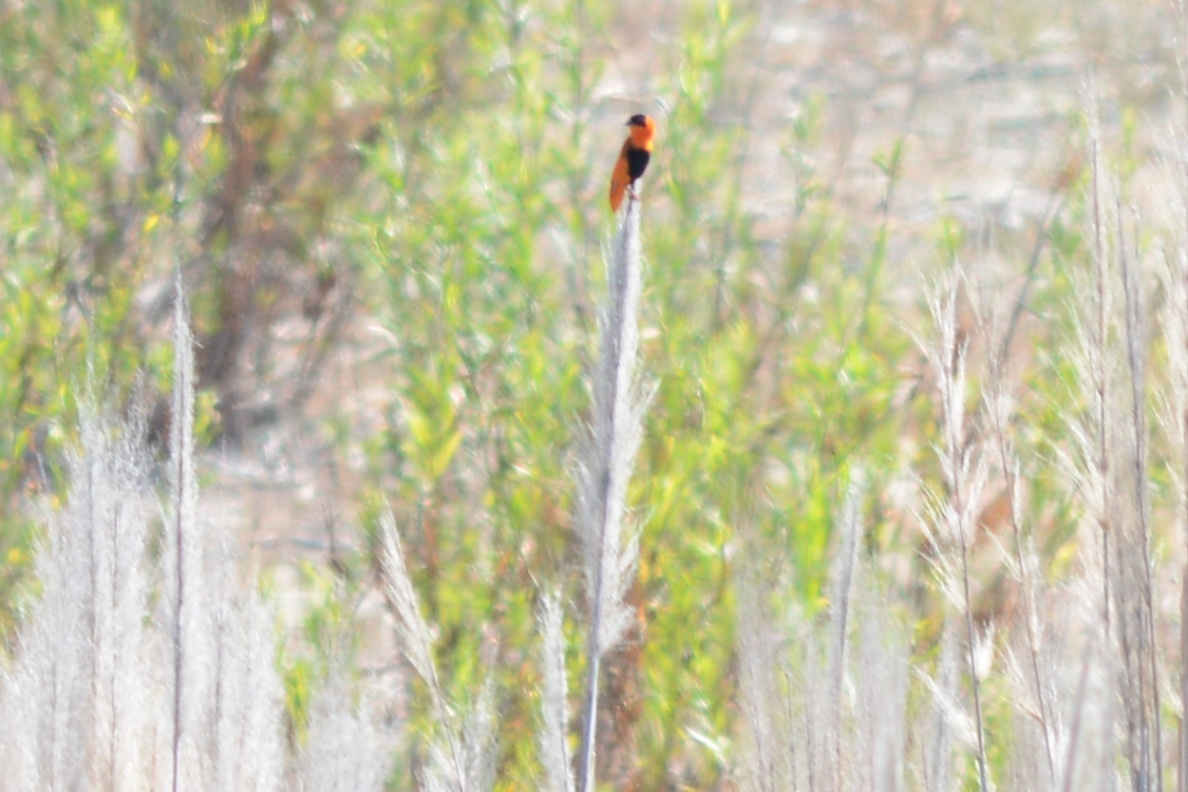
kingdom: Animalia
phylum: Chordata
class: Aves
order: Passeriformes
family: Ploceidae
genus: Euplectes
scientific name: Euplectes franciscanus
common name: Northern red bishop
